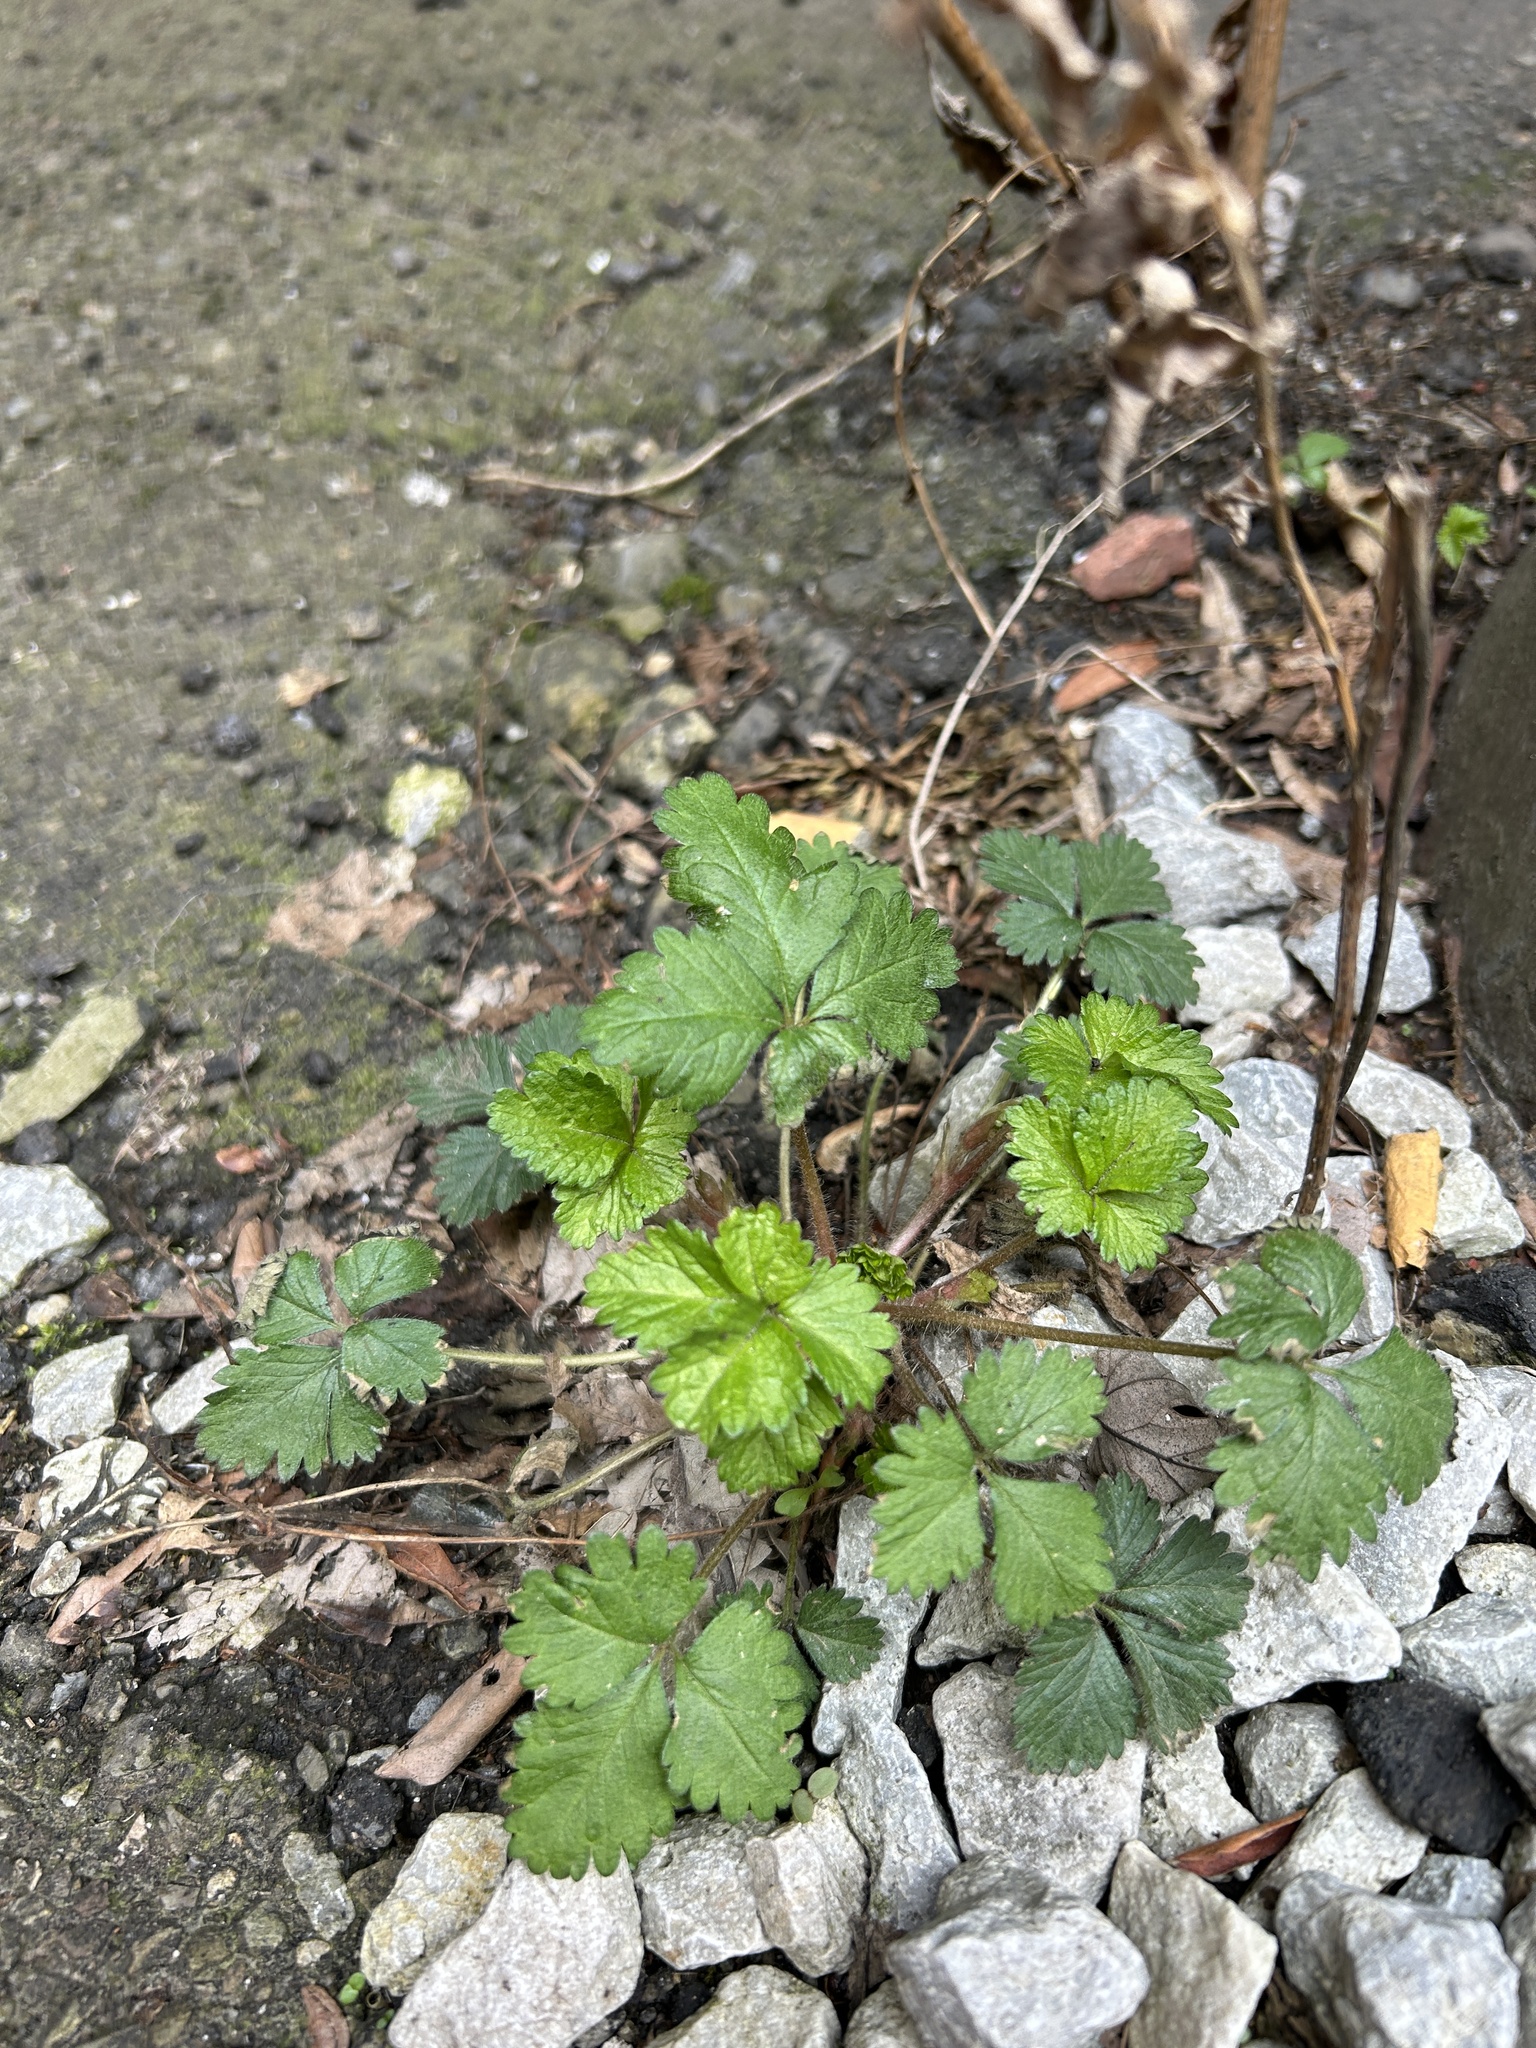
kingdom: Plantae
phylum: Tracheophyta
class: Magnoliopsida
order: Rosales
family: Rosaceae
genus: Potentilla
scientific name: Potentilla indica
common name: Yellow-flowered strawberry
